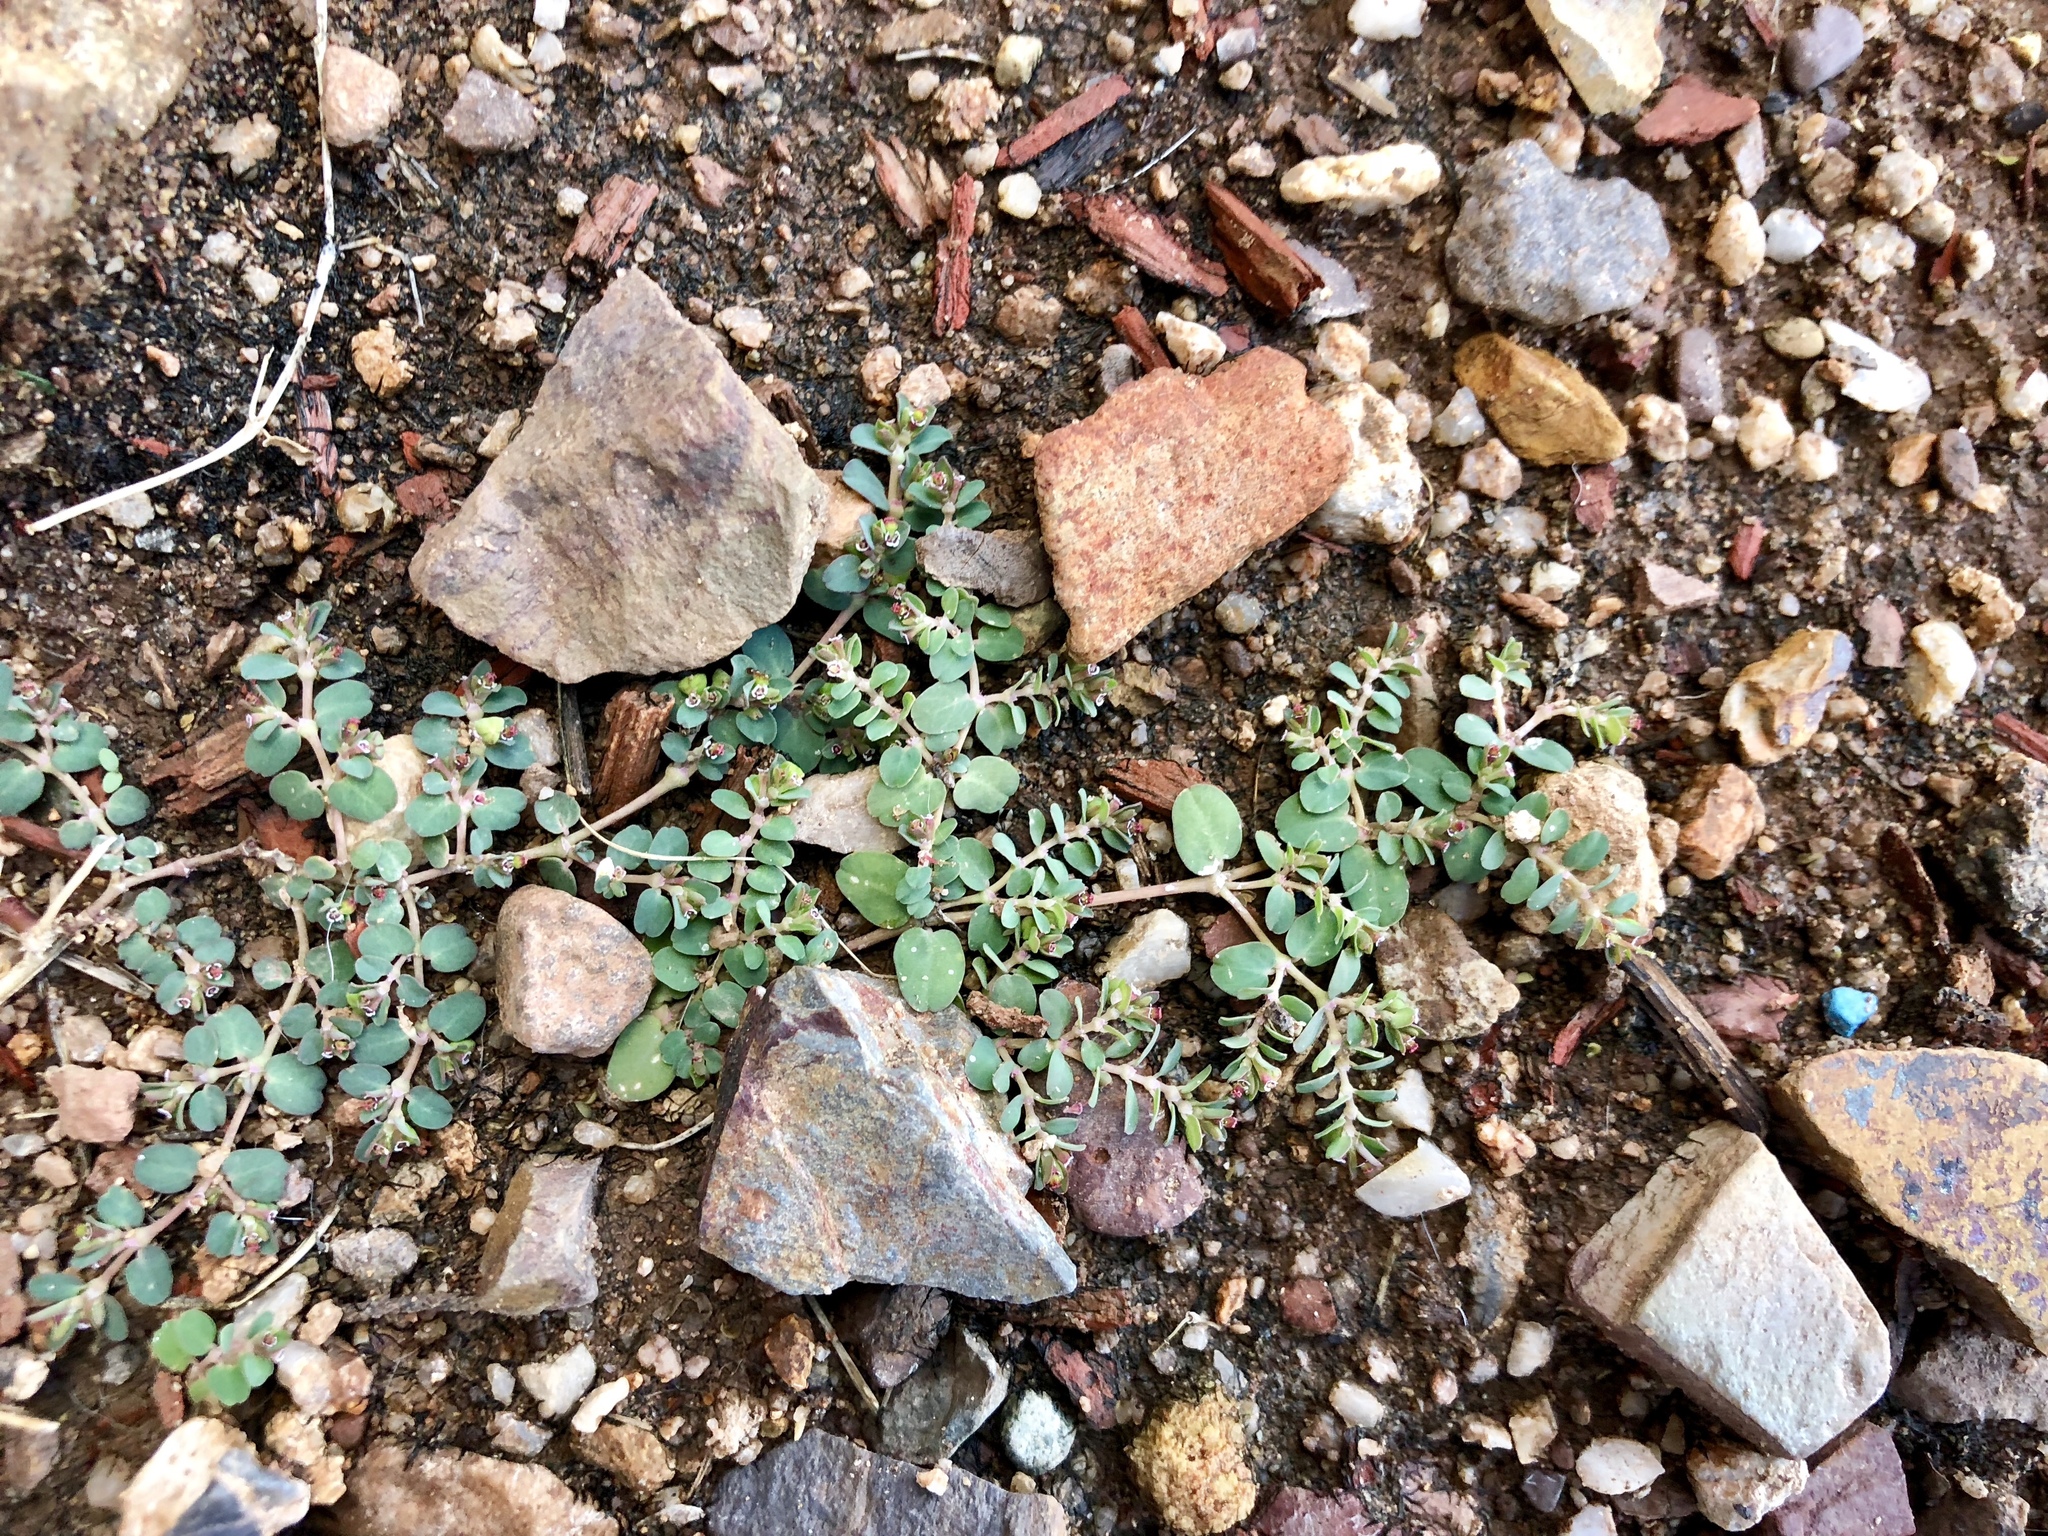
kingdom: Plantae
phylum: Tracheophyta
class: Magnoliopsida
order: Malpighiales
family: Euphorbiaceae
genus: Euphorbia
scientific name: Euphorbia serpens
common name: Matted sandmat
